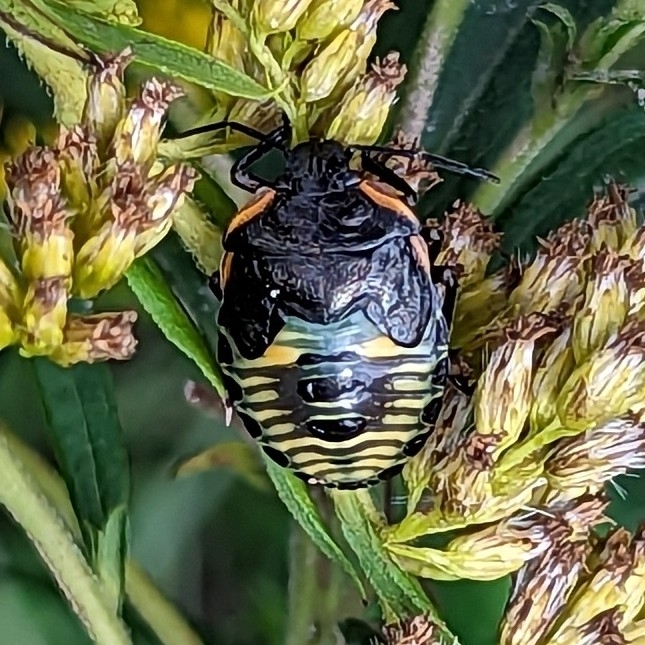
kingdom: Animalia
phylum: Arthropoda
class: Insecta
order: Hemiptera
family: Pentatomidae
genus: Chinavia
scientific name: Chinavia hilaris
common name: Green stink bug
